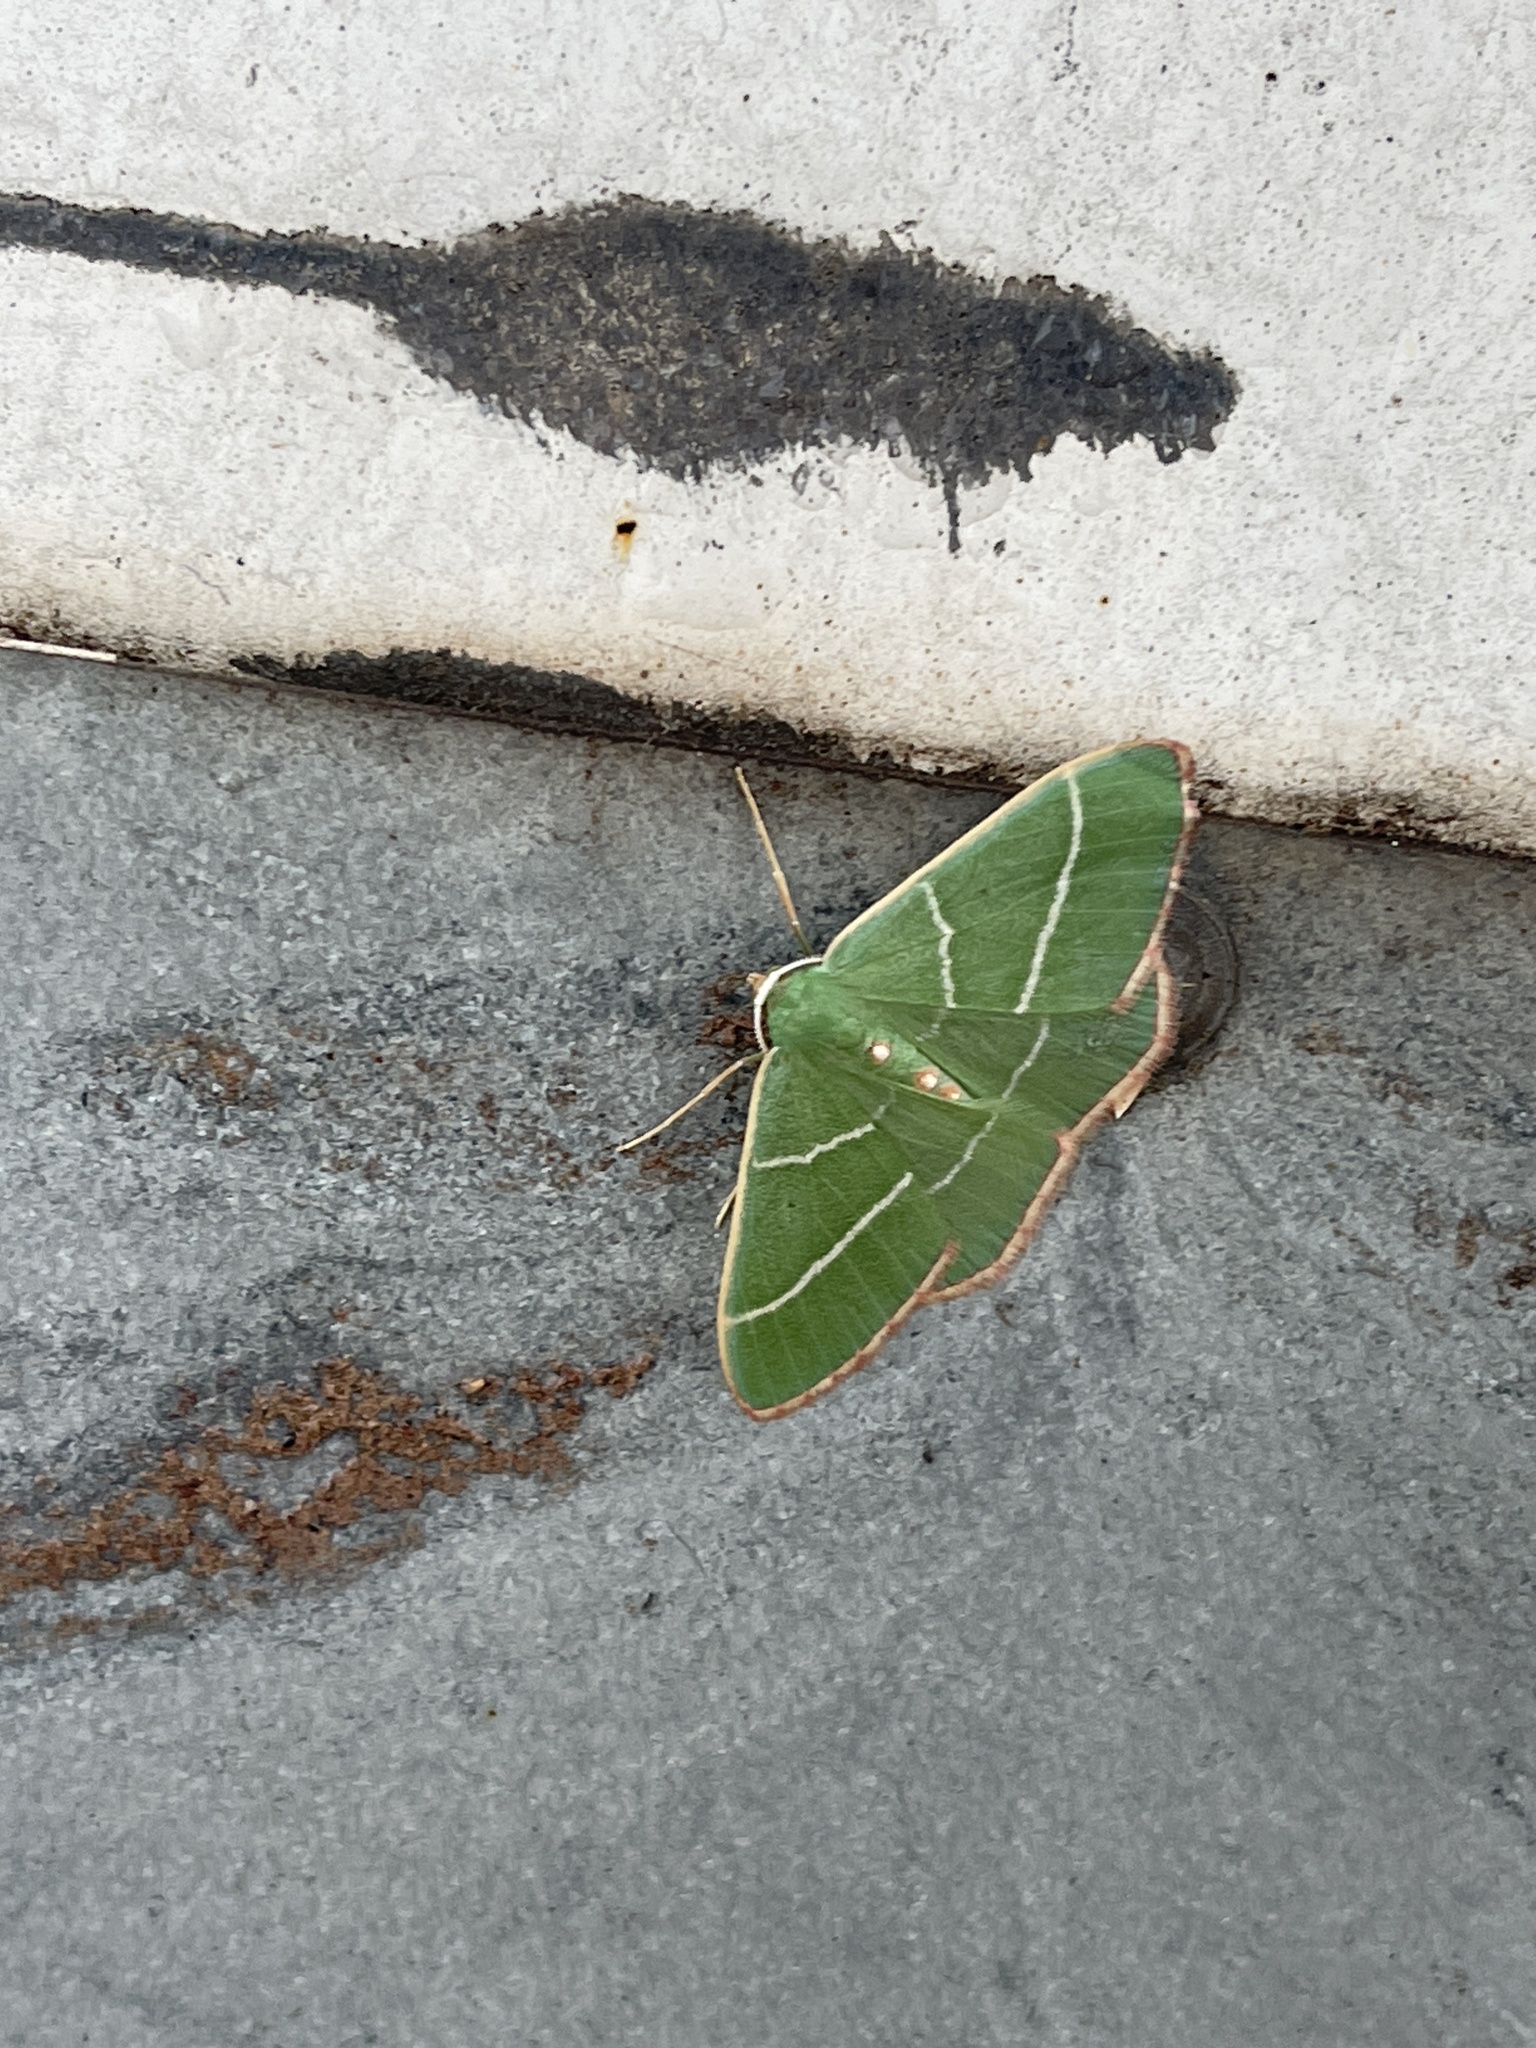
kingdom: Animalia
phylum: Arthropoda
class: Insecta
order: Lepidoptera
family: Geometridae
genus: Nemoria
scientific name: Nemoria obliqua
